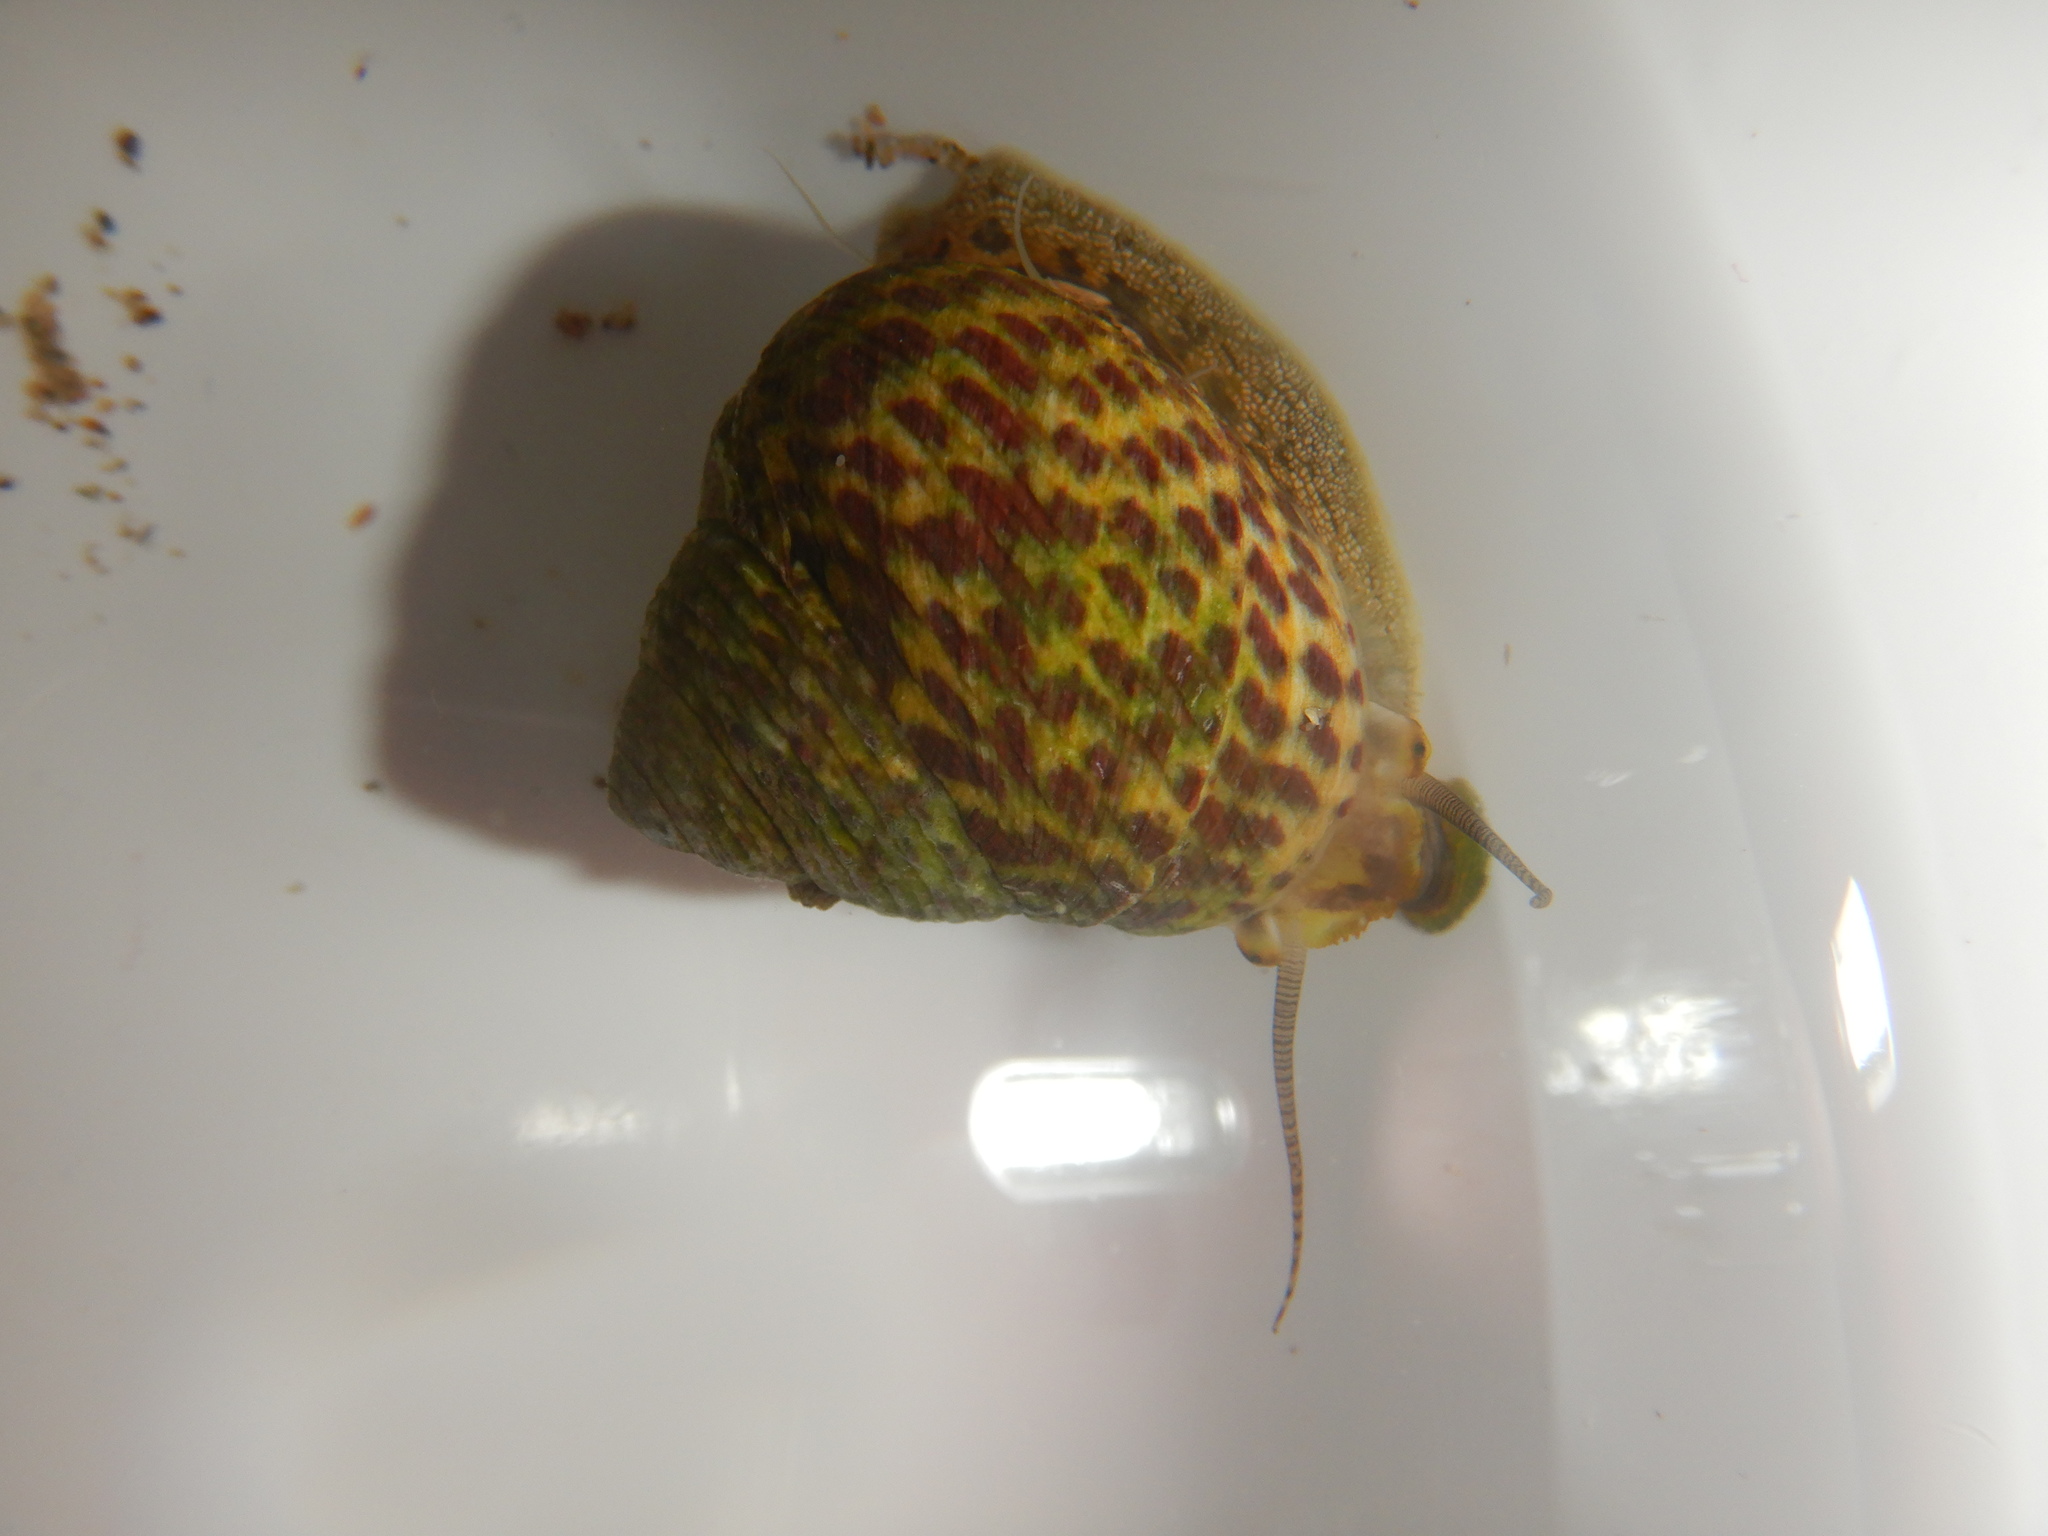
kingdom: Animalia
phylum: Mollusca
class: Gastropoda
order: Trochida
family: Trochidae
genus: Phorcus
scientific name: Phorcus turbinatus
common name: Turbinate monodont
